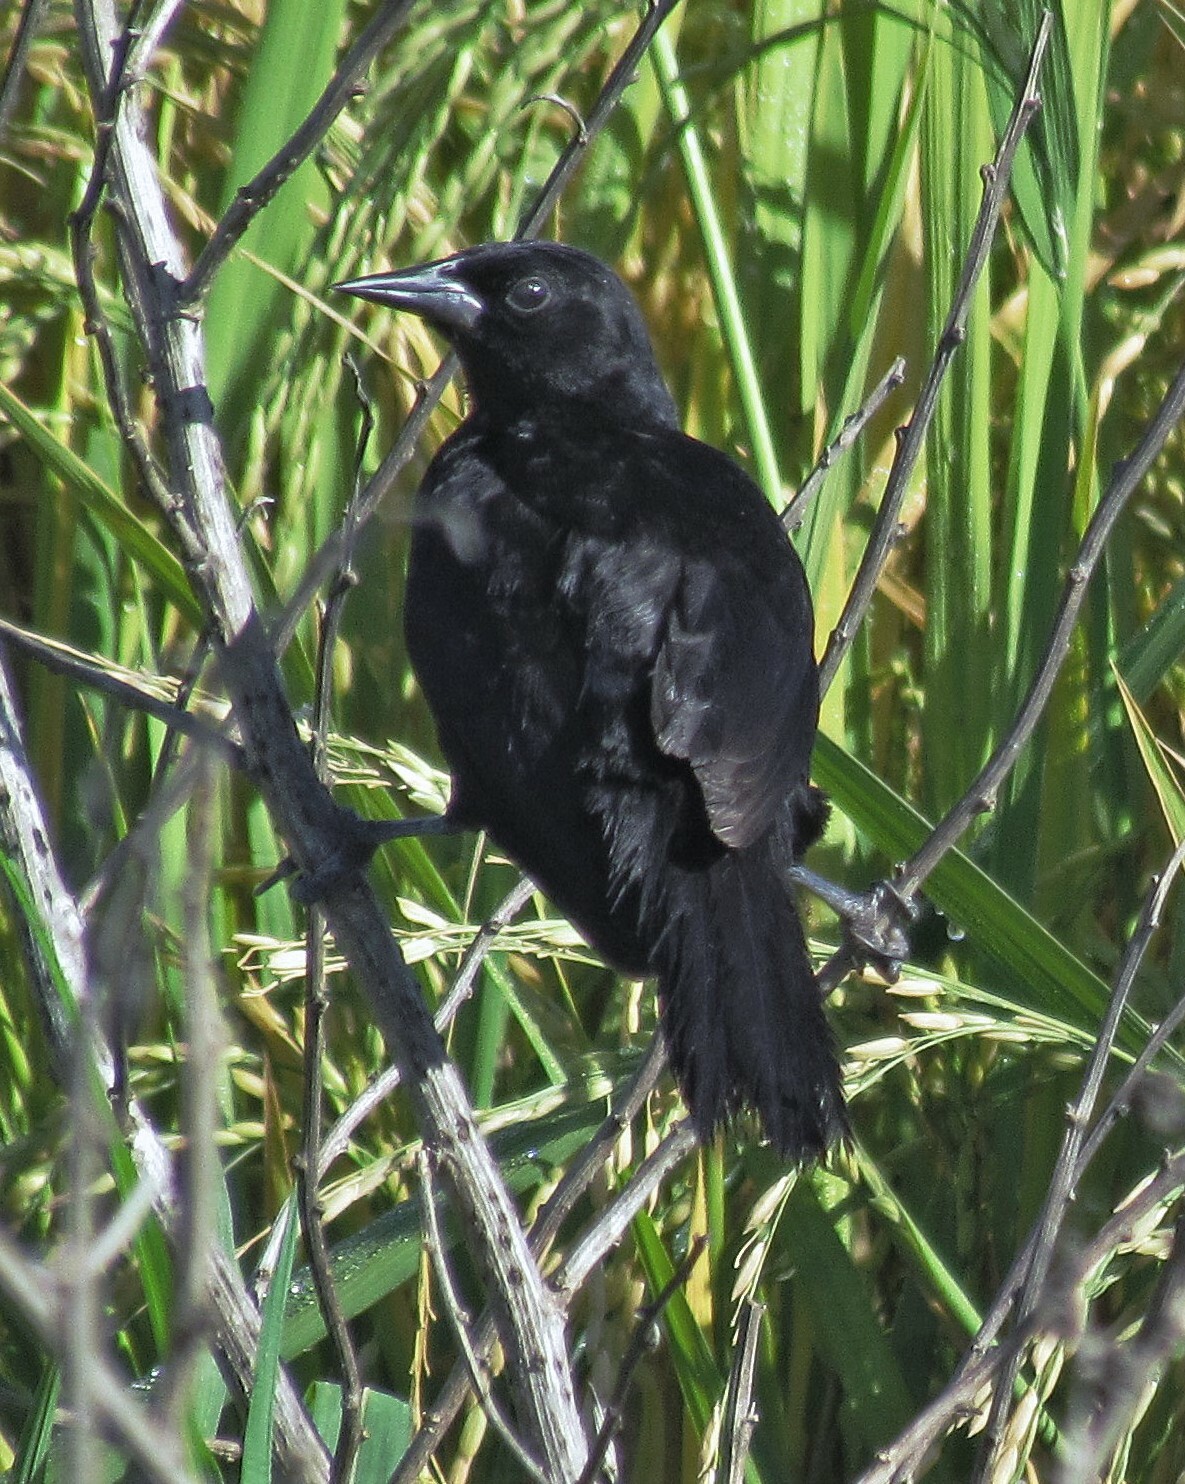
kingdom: Animalia
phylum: Chordata
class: Aves
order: Passeriformes
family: Icteridae
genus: Agelasticus
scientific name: Agelasticus cyanopus
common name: Unicolored blackbird
